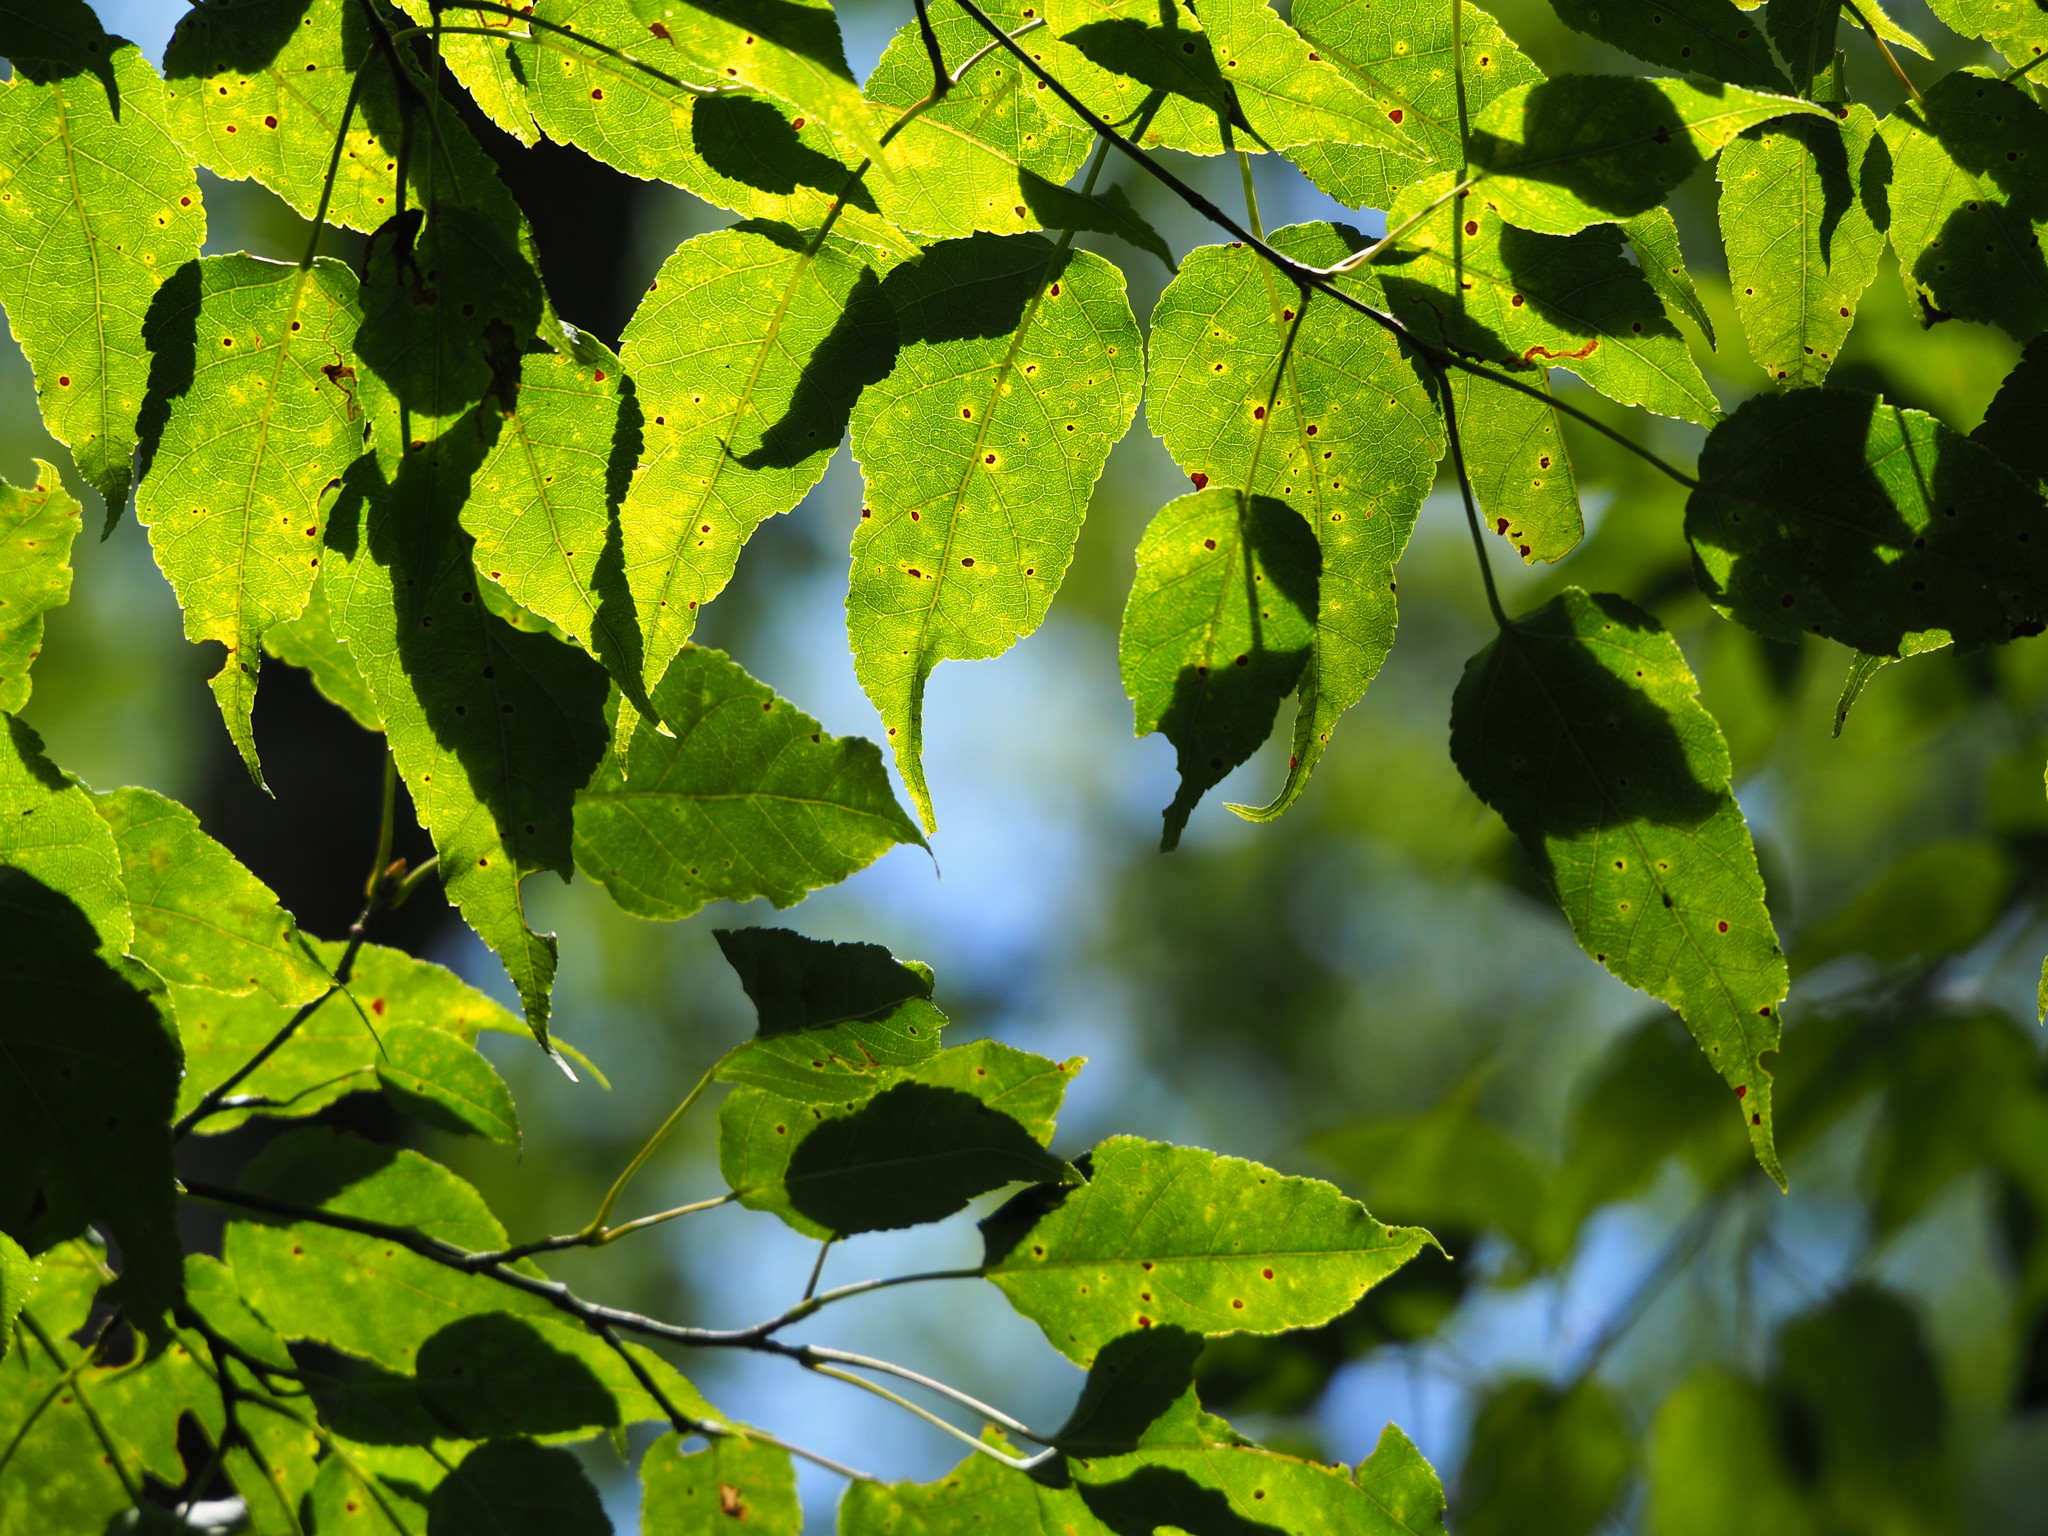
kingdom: Plantae
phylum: Tracheophyta
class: Magnoliopsida
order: Sapindales
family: Sapindaceae
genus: Acer
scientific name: Acer caudatifolium
